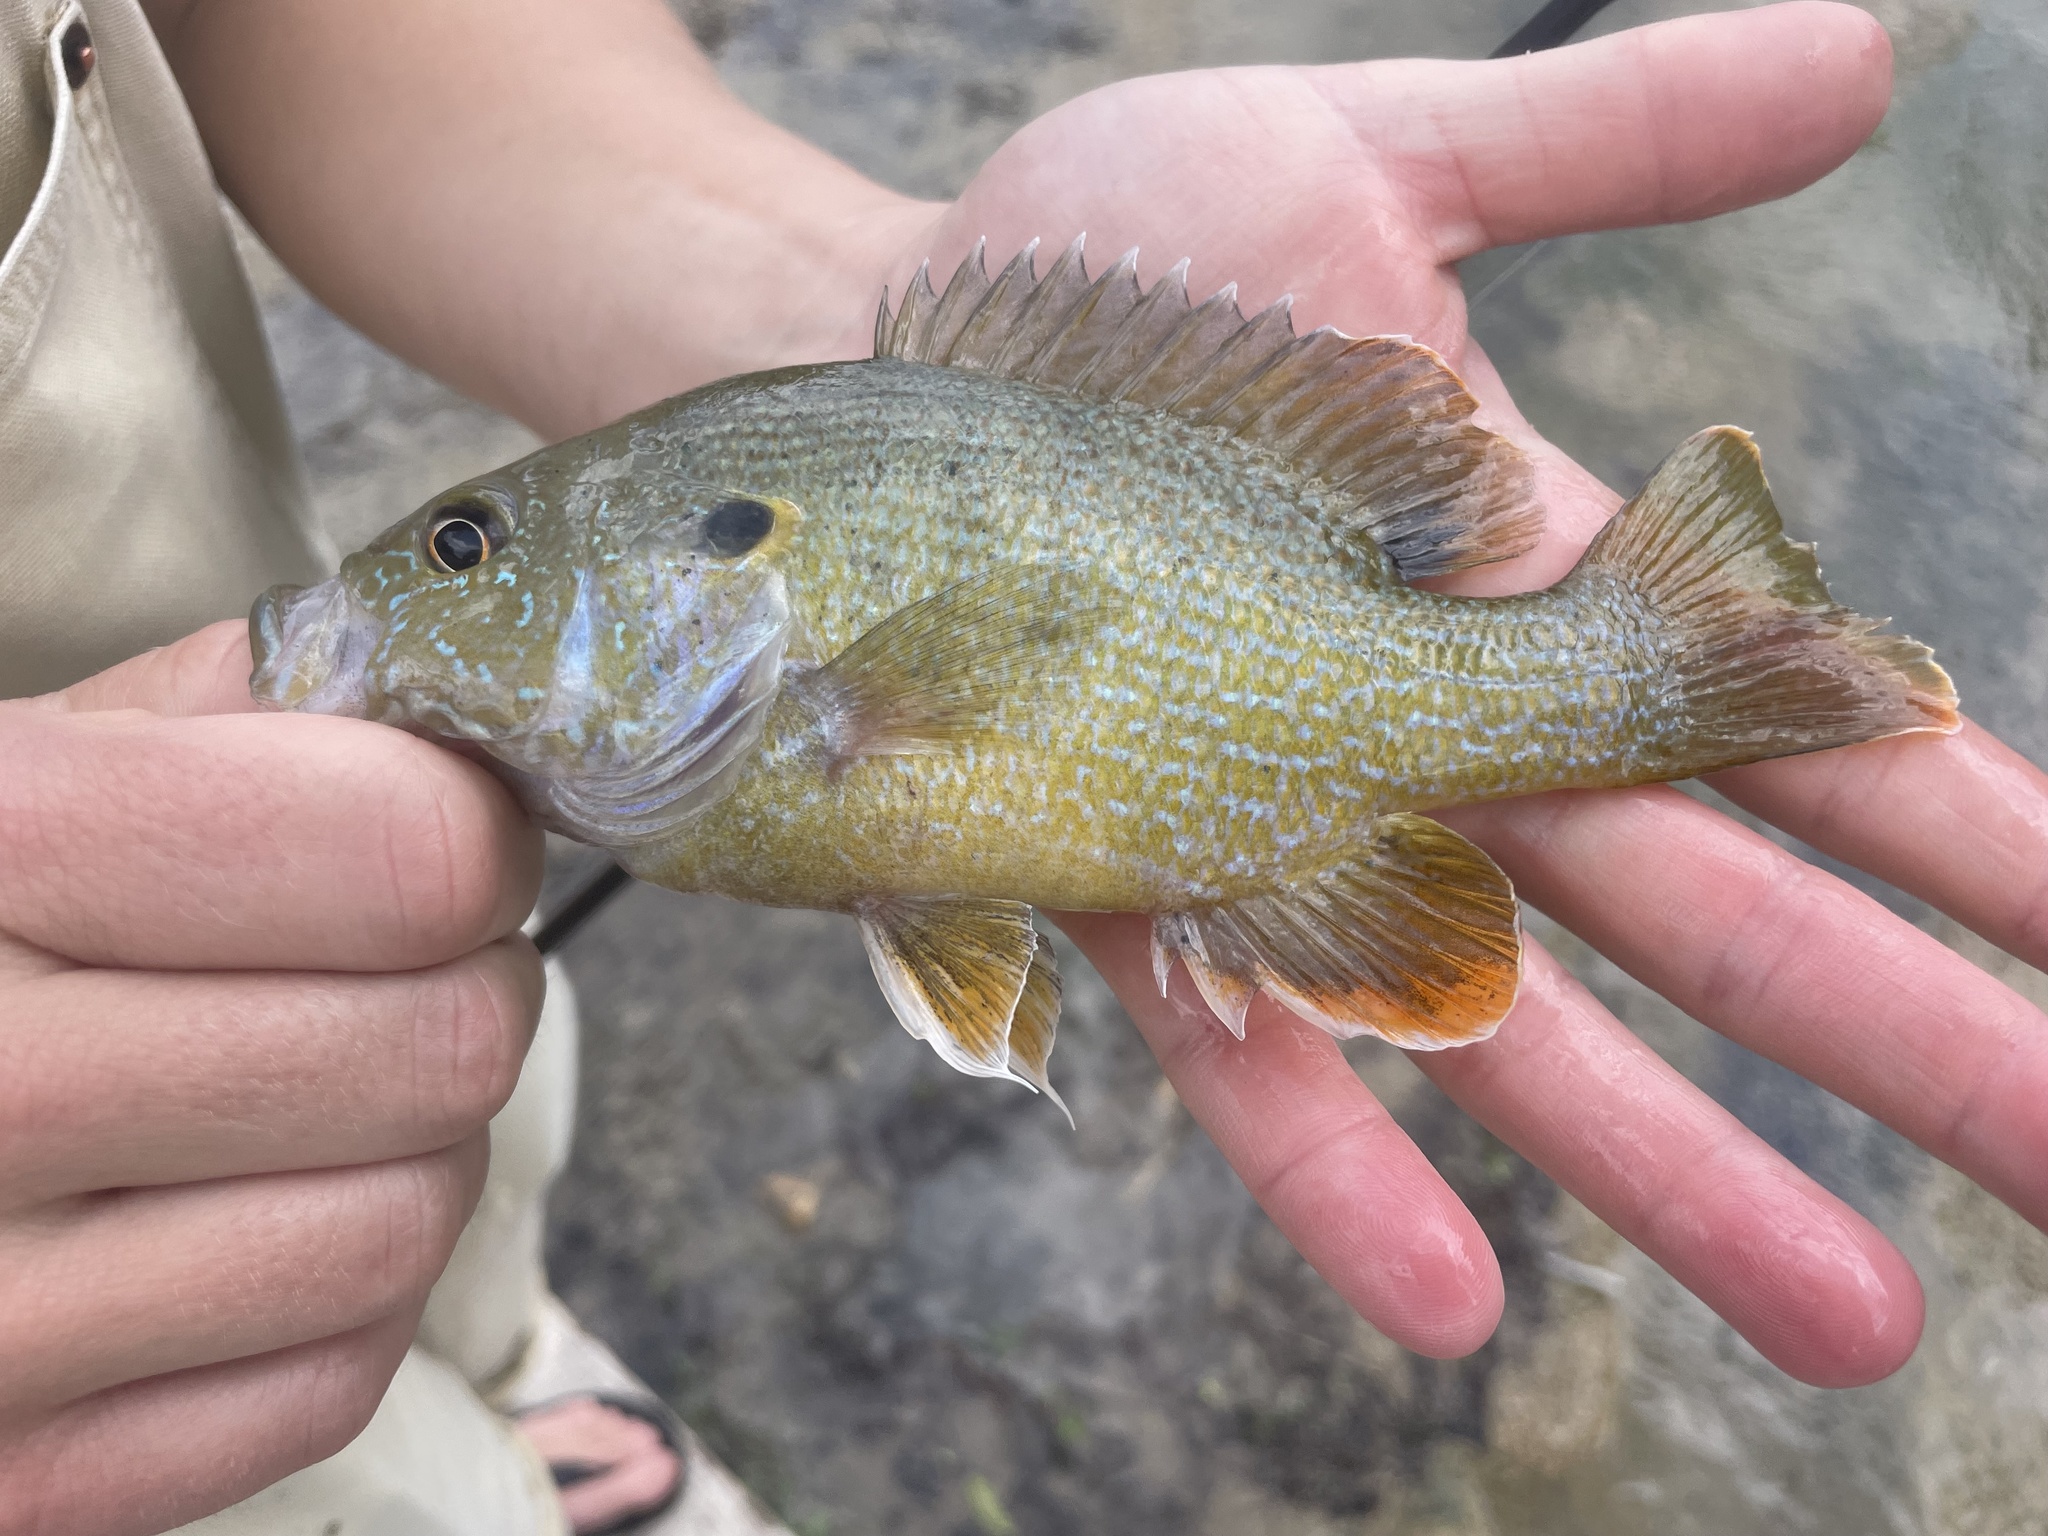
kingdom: Animalia
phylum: Chordata
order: Perciformes
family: Centrarchidae
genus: Lepomis
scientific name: Lepomis cyanellus
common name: Green sunfish
